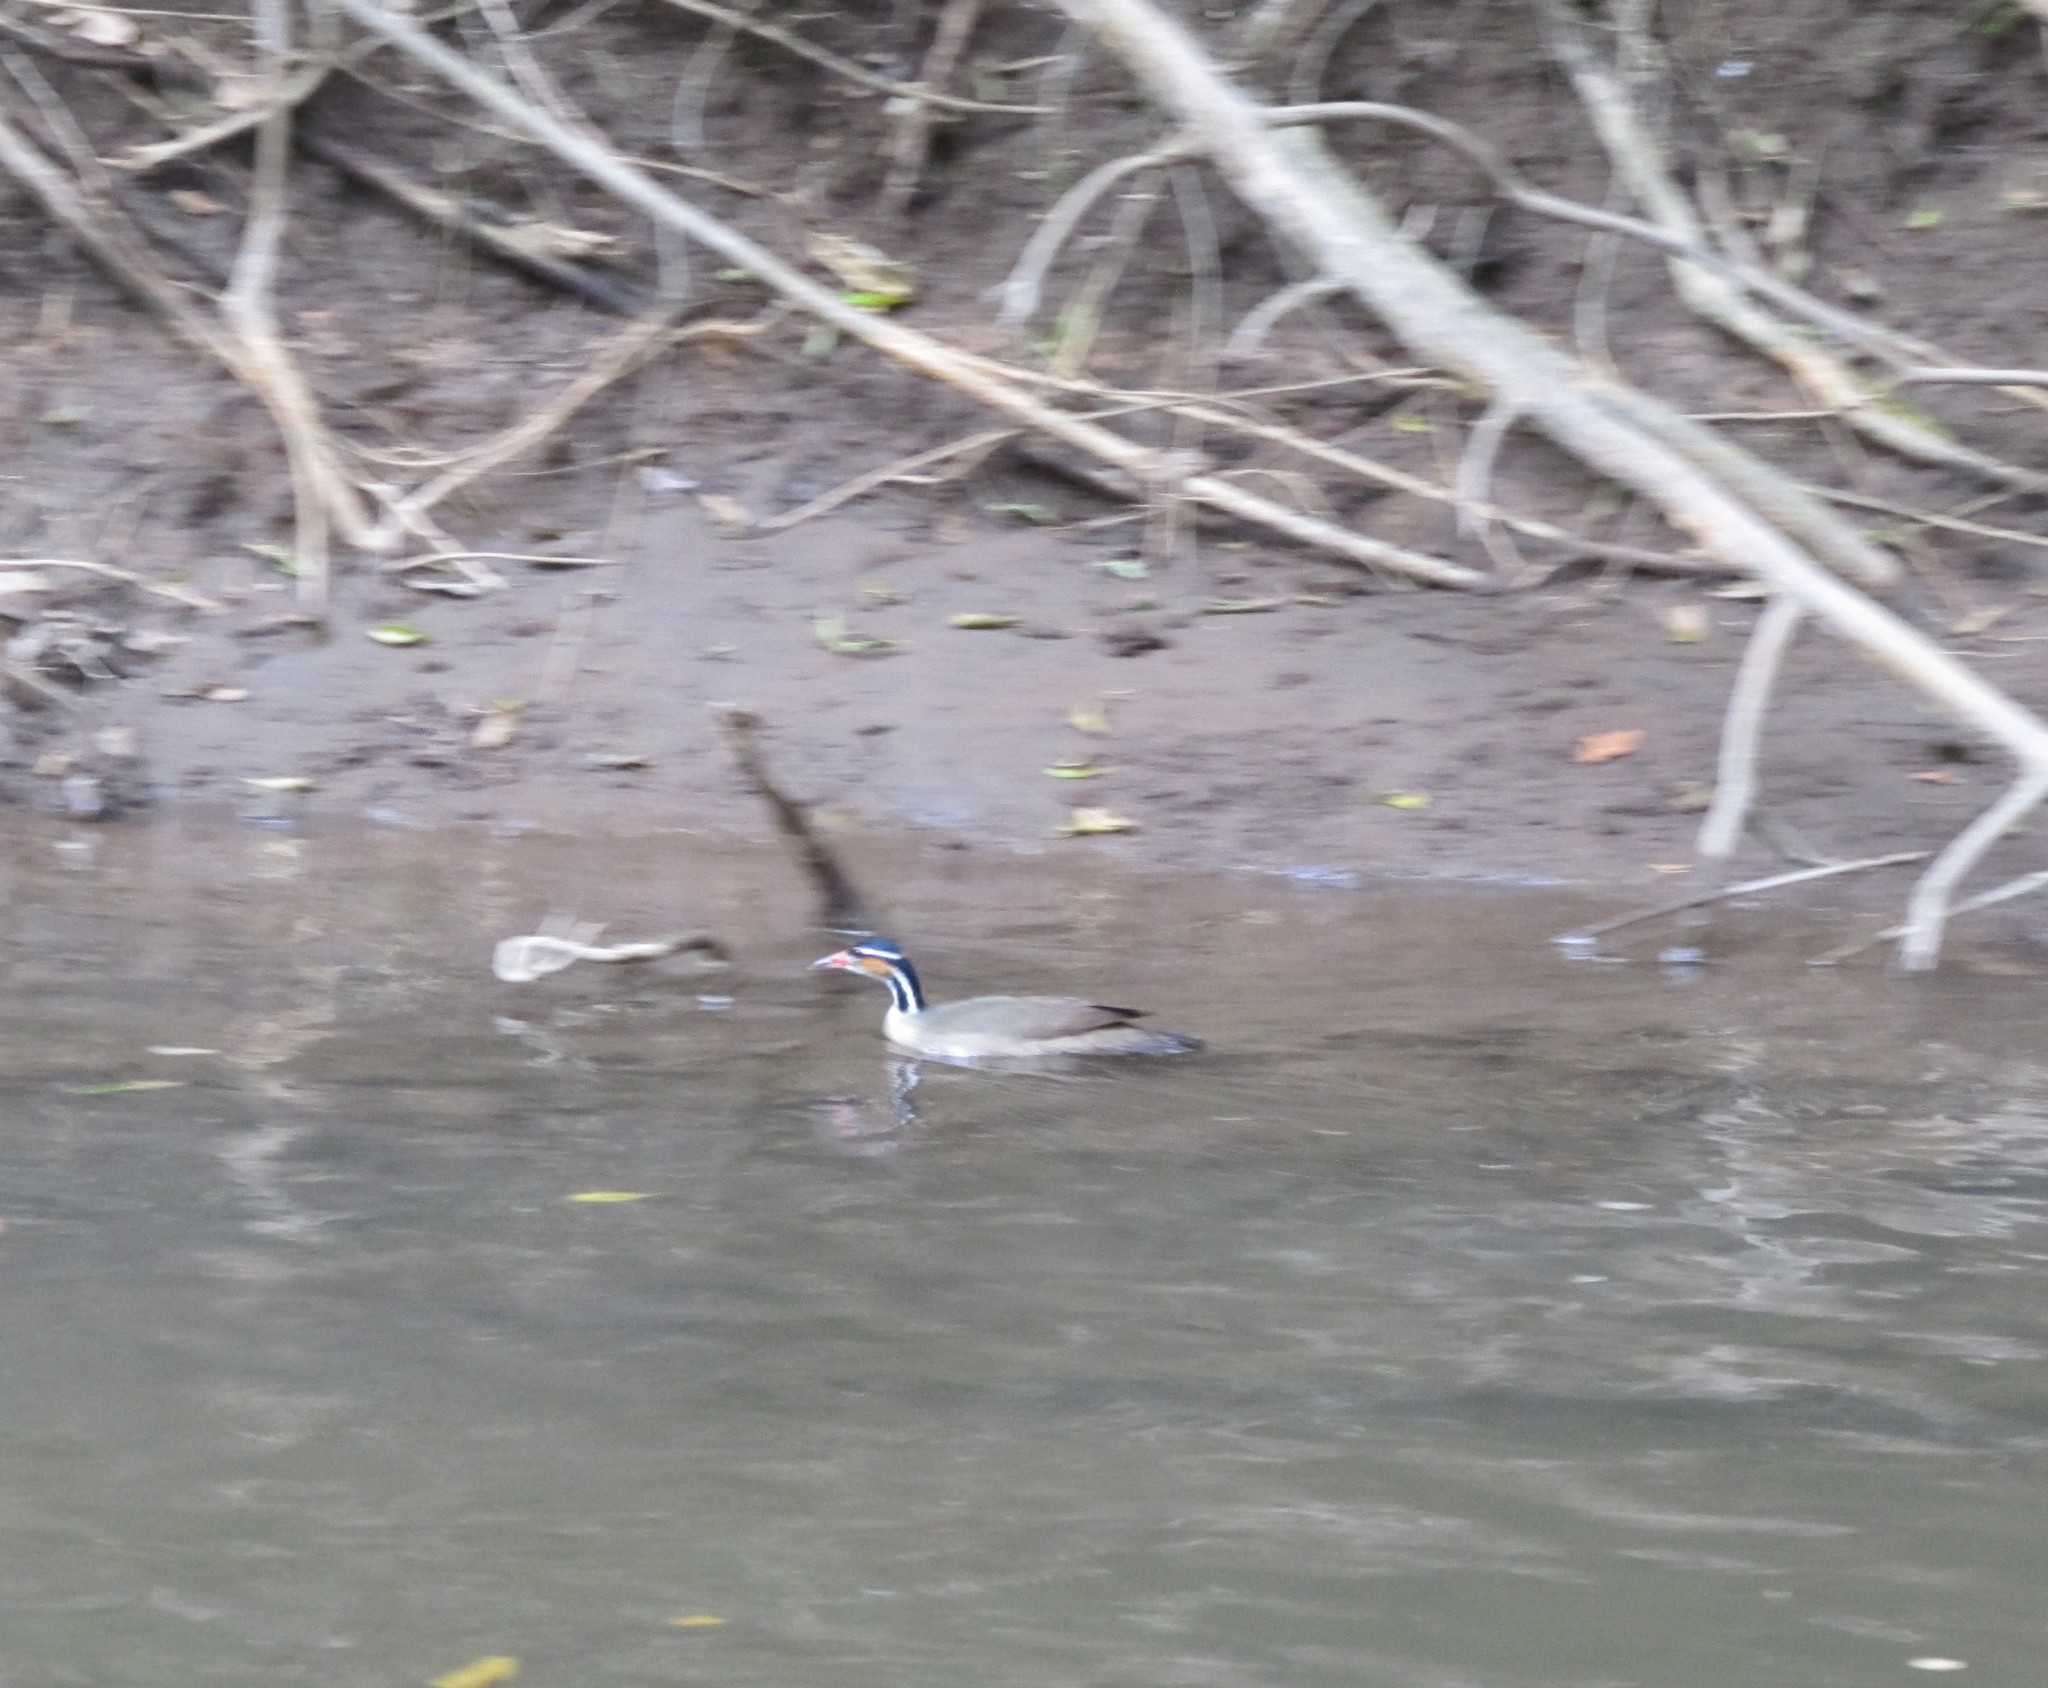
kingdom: Animalia
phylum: Chordata
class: Aves
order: Gruiformes
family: Heliornithidae
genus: Heliornis
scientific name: Heliornis fulica
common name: Sungrebe
